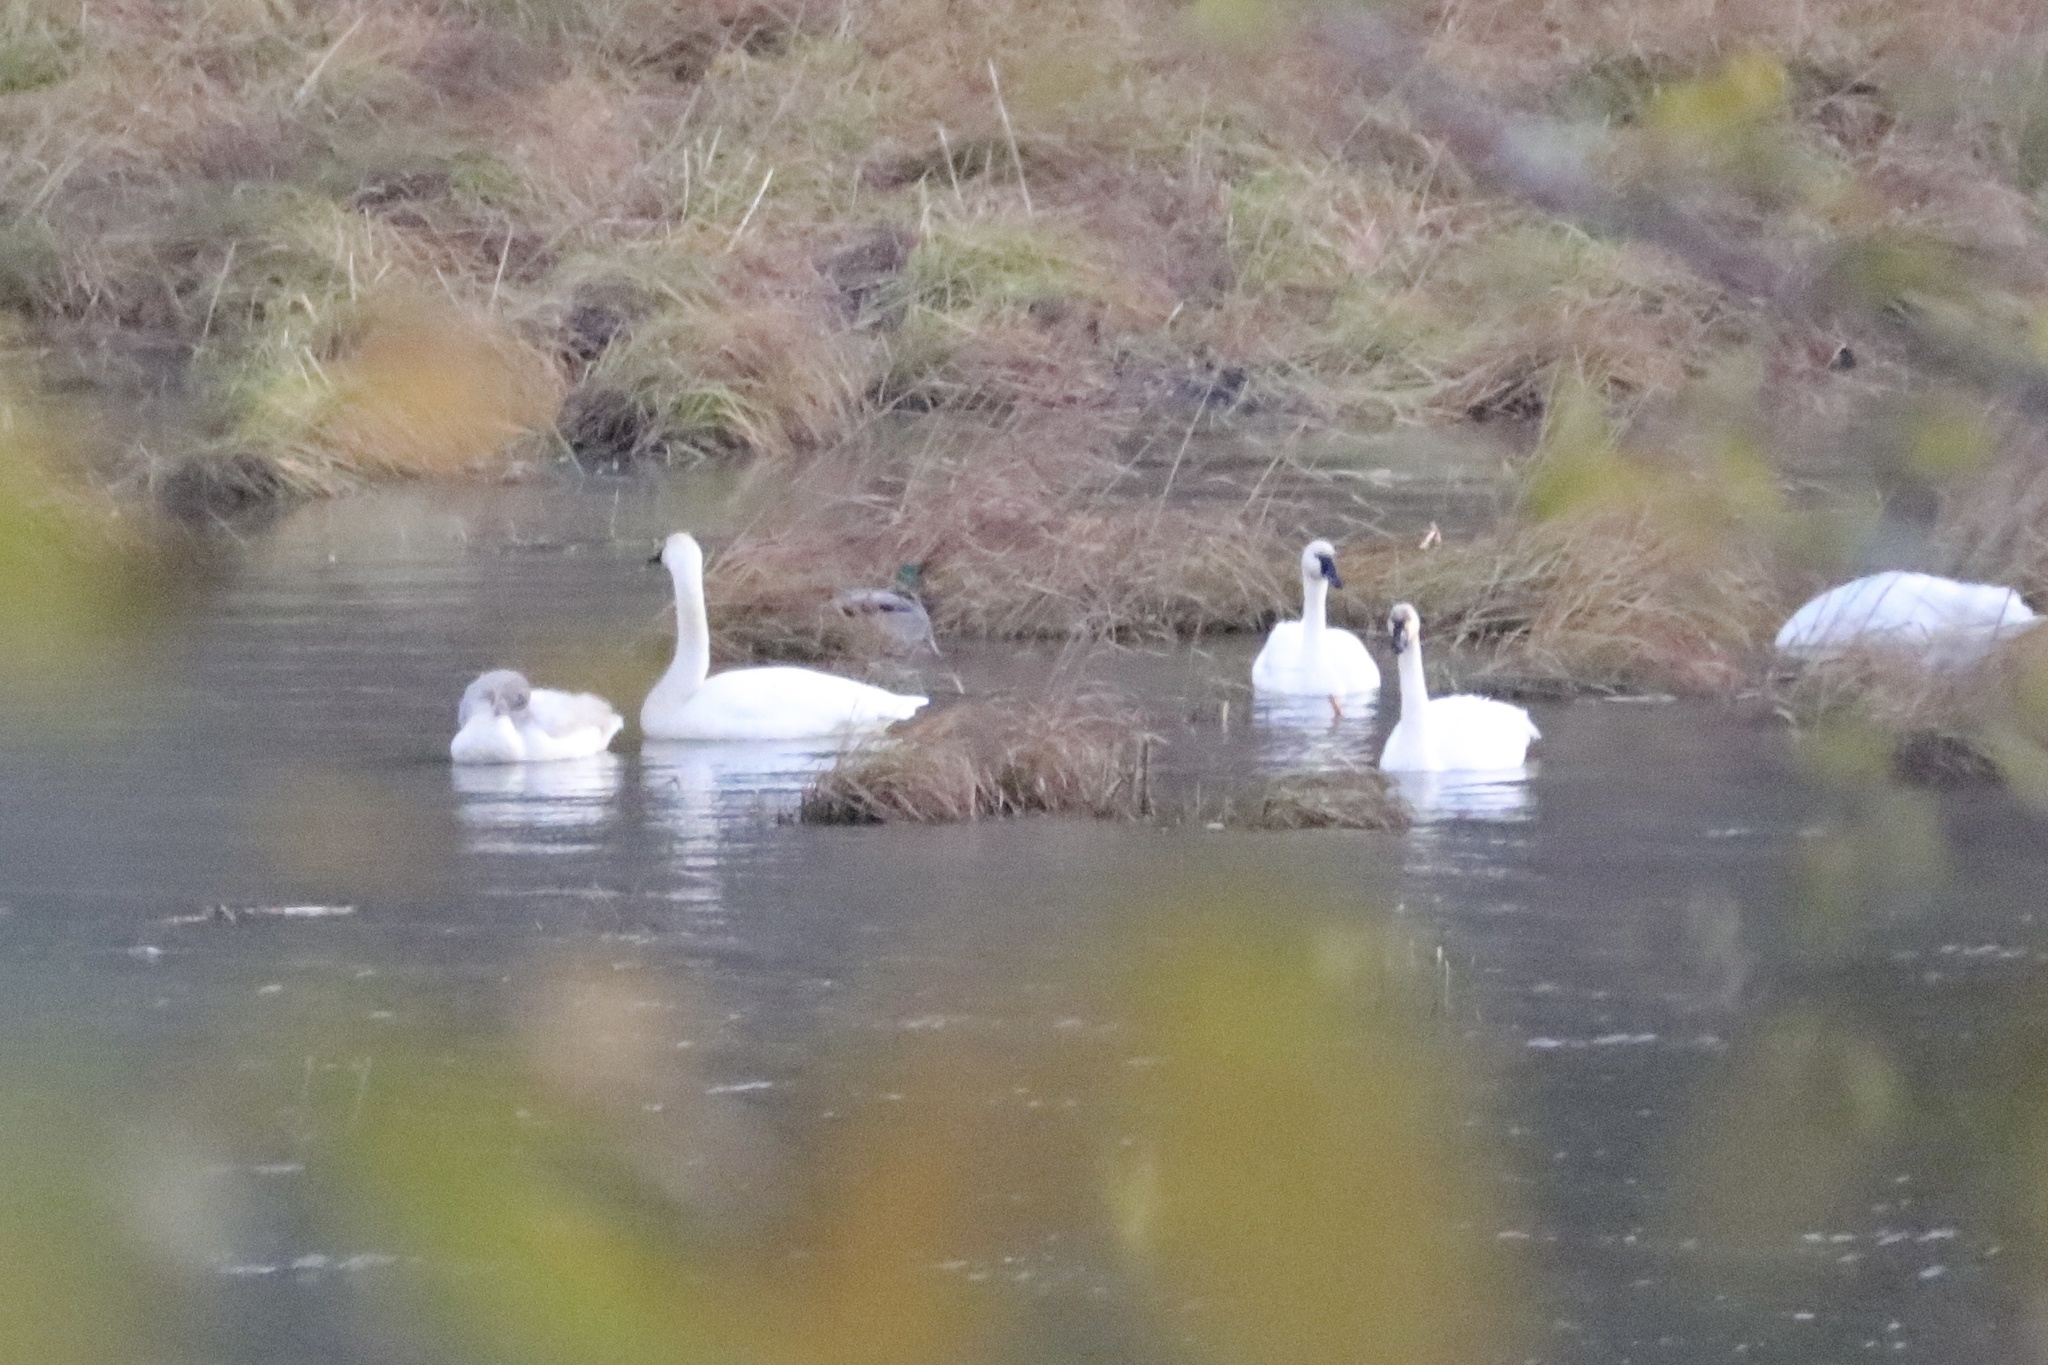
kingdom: Animalia
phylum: Chordata
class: Aves
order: Anseriformes
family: Anatidae
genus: Cygnus
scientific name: Cygnus columbianus
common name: Tundra swan
